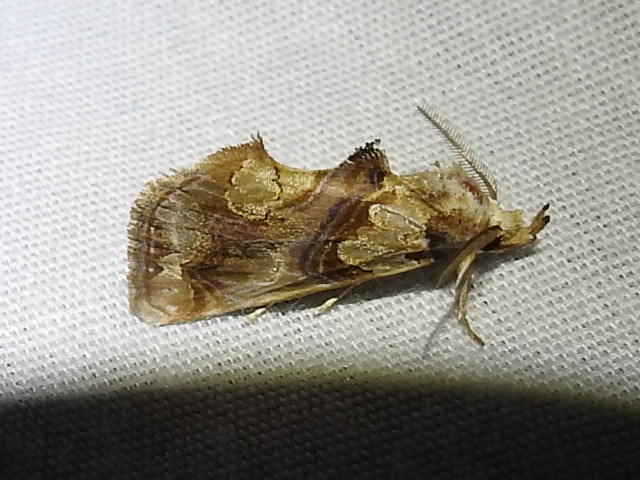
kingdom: Animalia
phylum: Arthropoda
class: Insecta
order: Lepidoptera
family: Erebidae
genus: Plusiodonta
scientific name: Plusiodonta compressipalpis
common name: Moonseed moth
